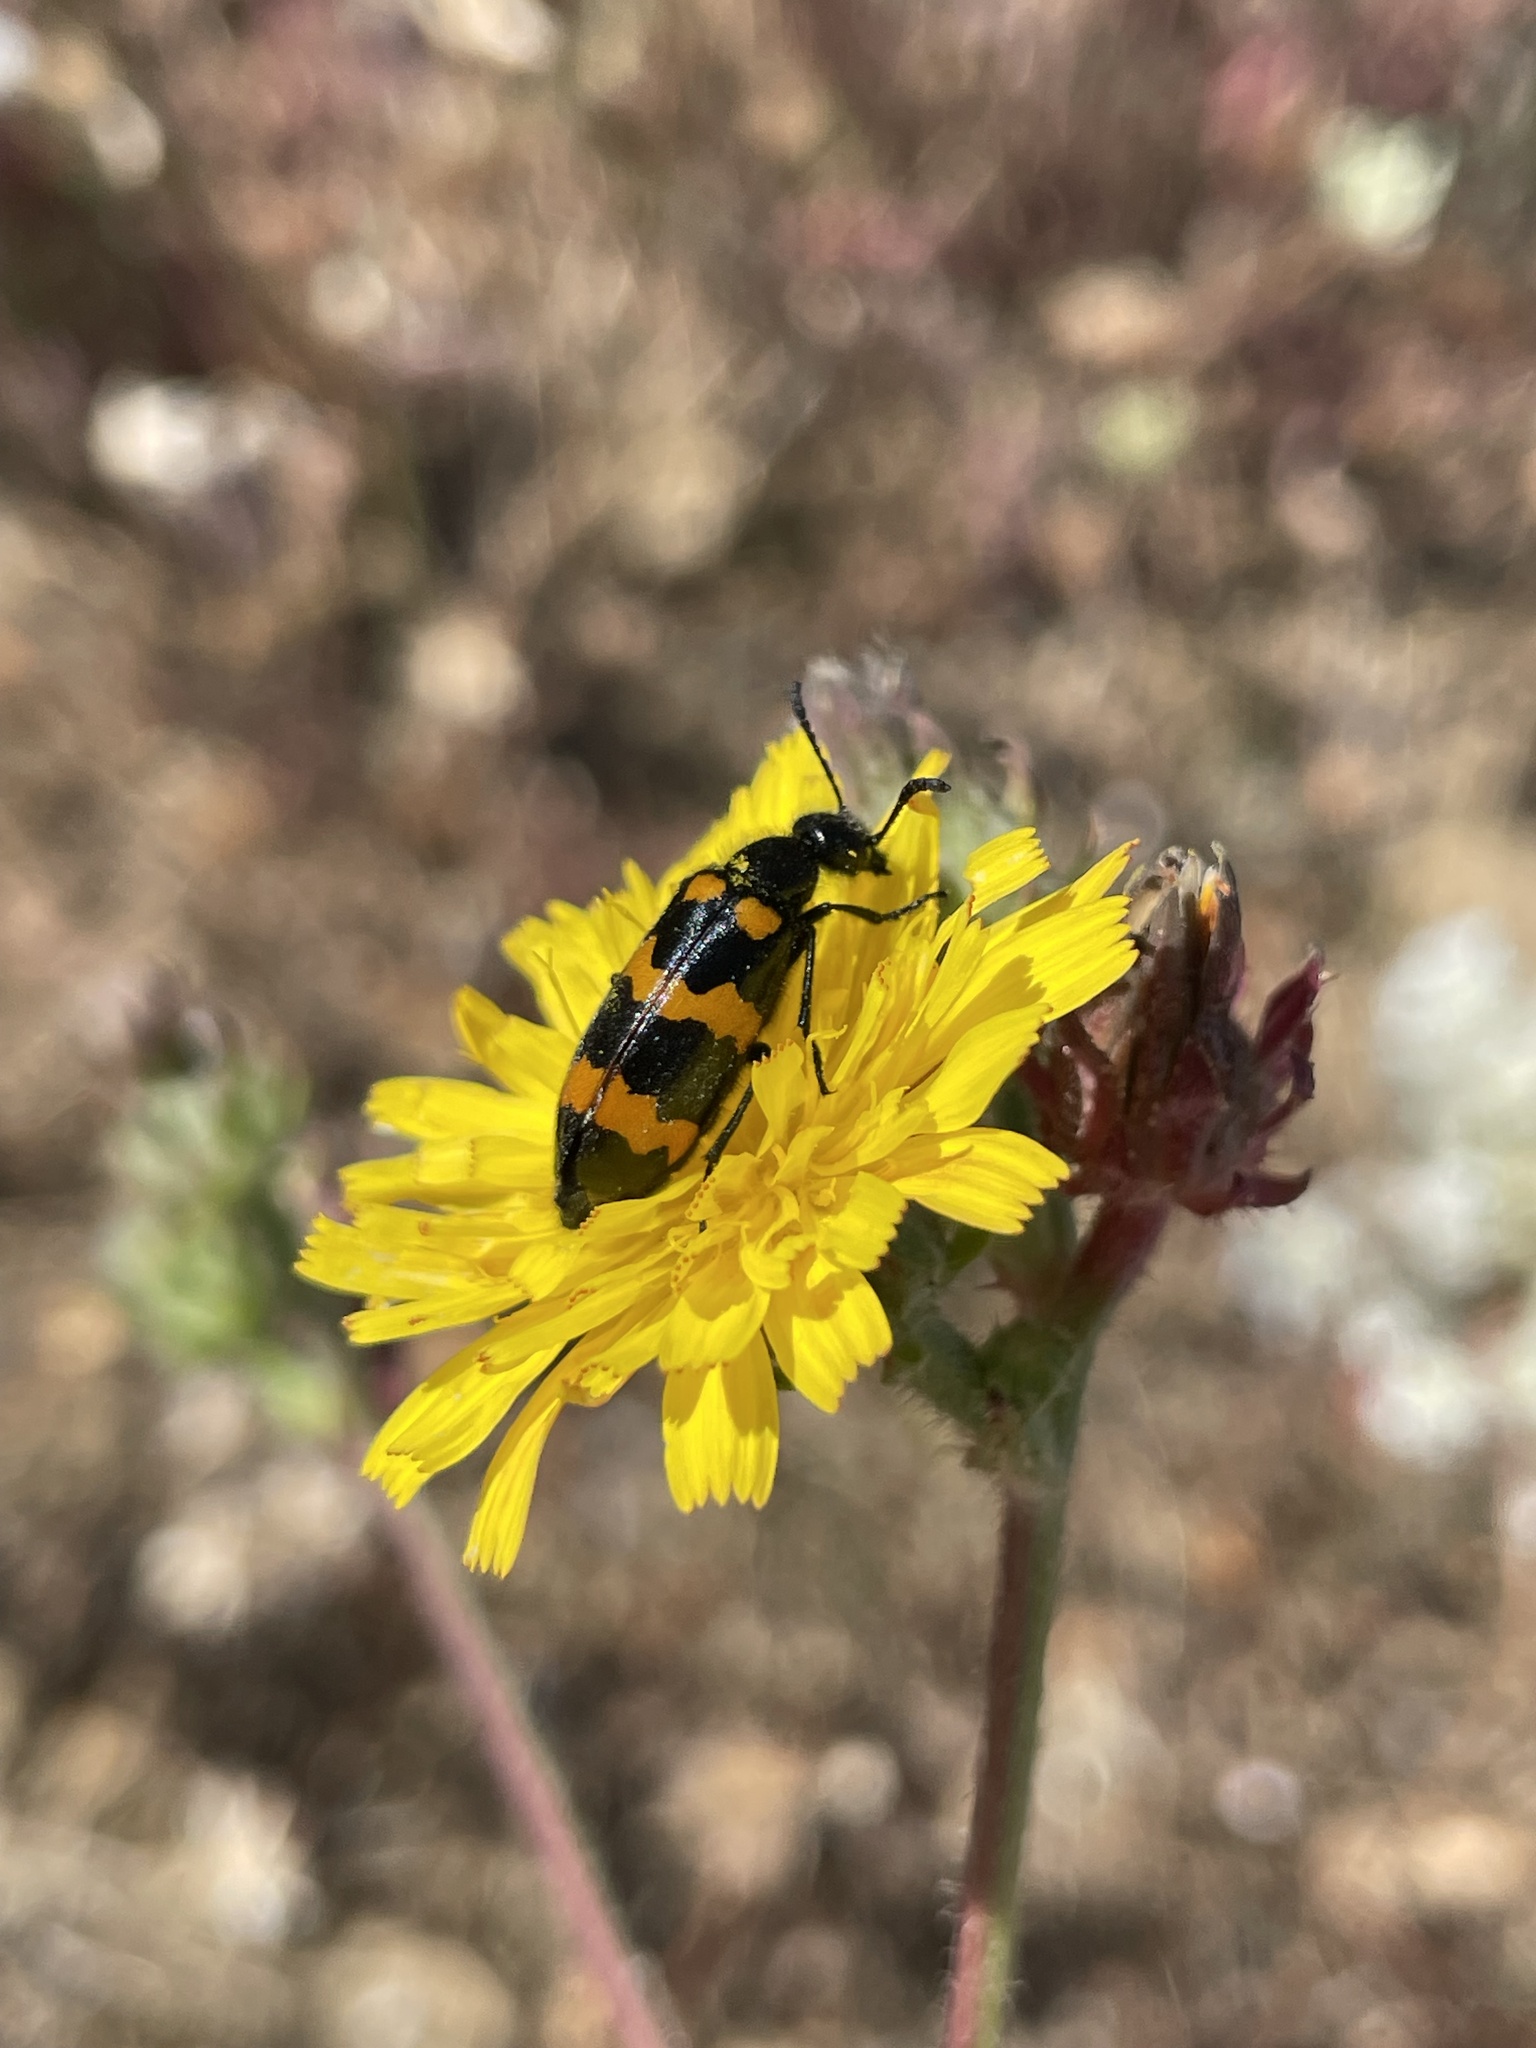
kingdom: Animalia
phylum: Arthropoda
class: Insecta
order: Coleoptera
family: Meloidae
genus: Mylabris
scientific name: Mylabris variabilis
